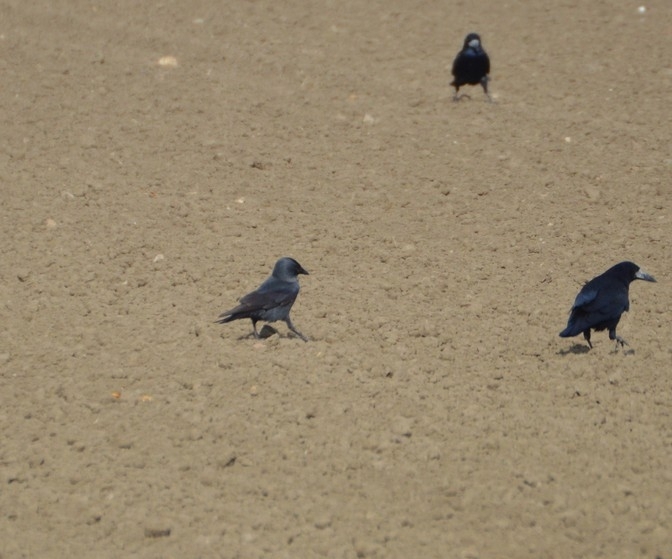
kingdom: Animalia
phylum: Chordata
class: Aves
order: Passeriformes
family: Corvidae
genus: Coloeus
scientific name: Coloeus monedula
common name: Western jackdaw
